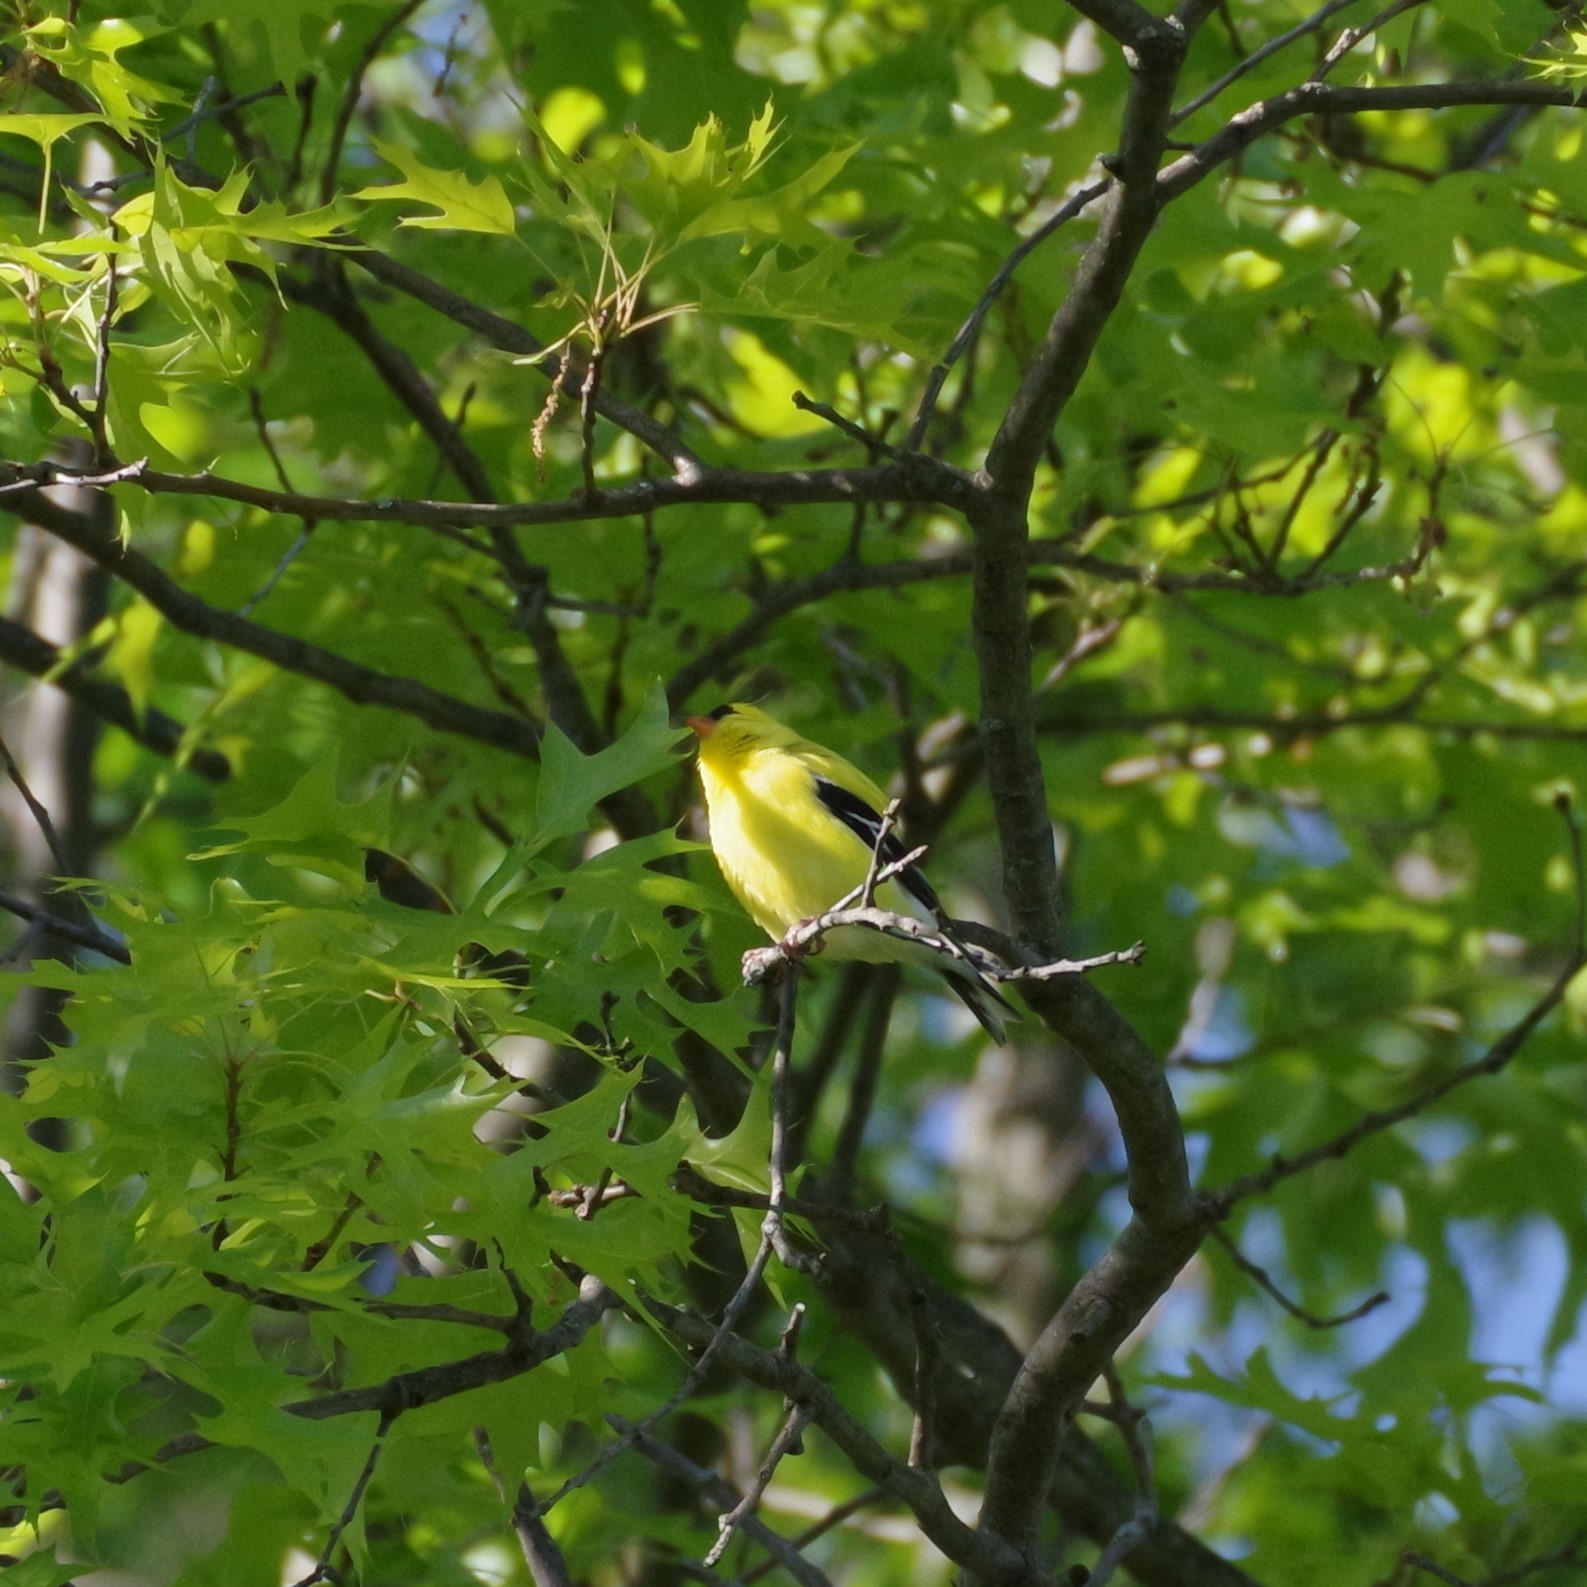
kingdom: Animalia
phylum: Chordata
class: Aves
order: Passeriformes
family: Fringillidae
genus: Spinus
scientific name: Spinus tristis
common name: American goldfinch
